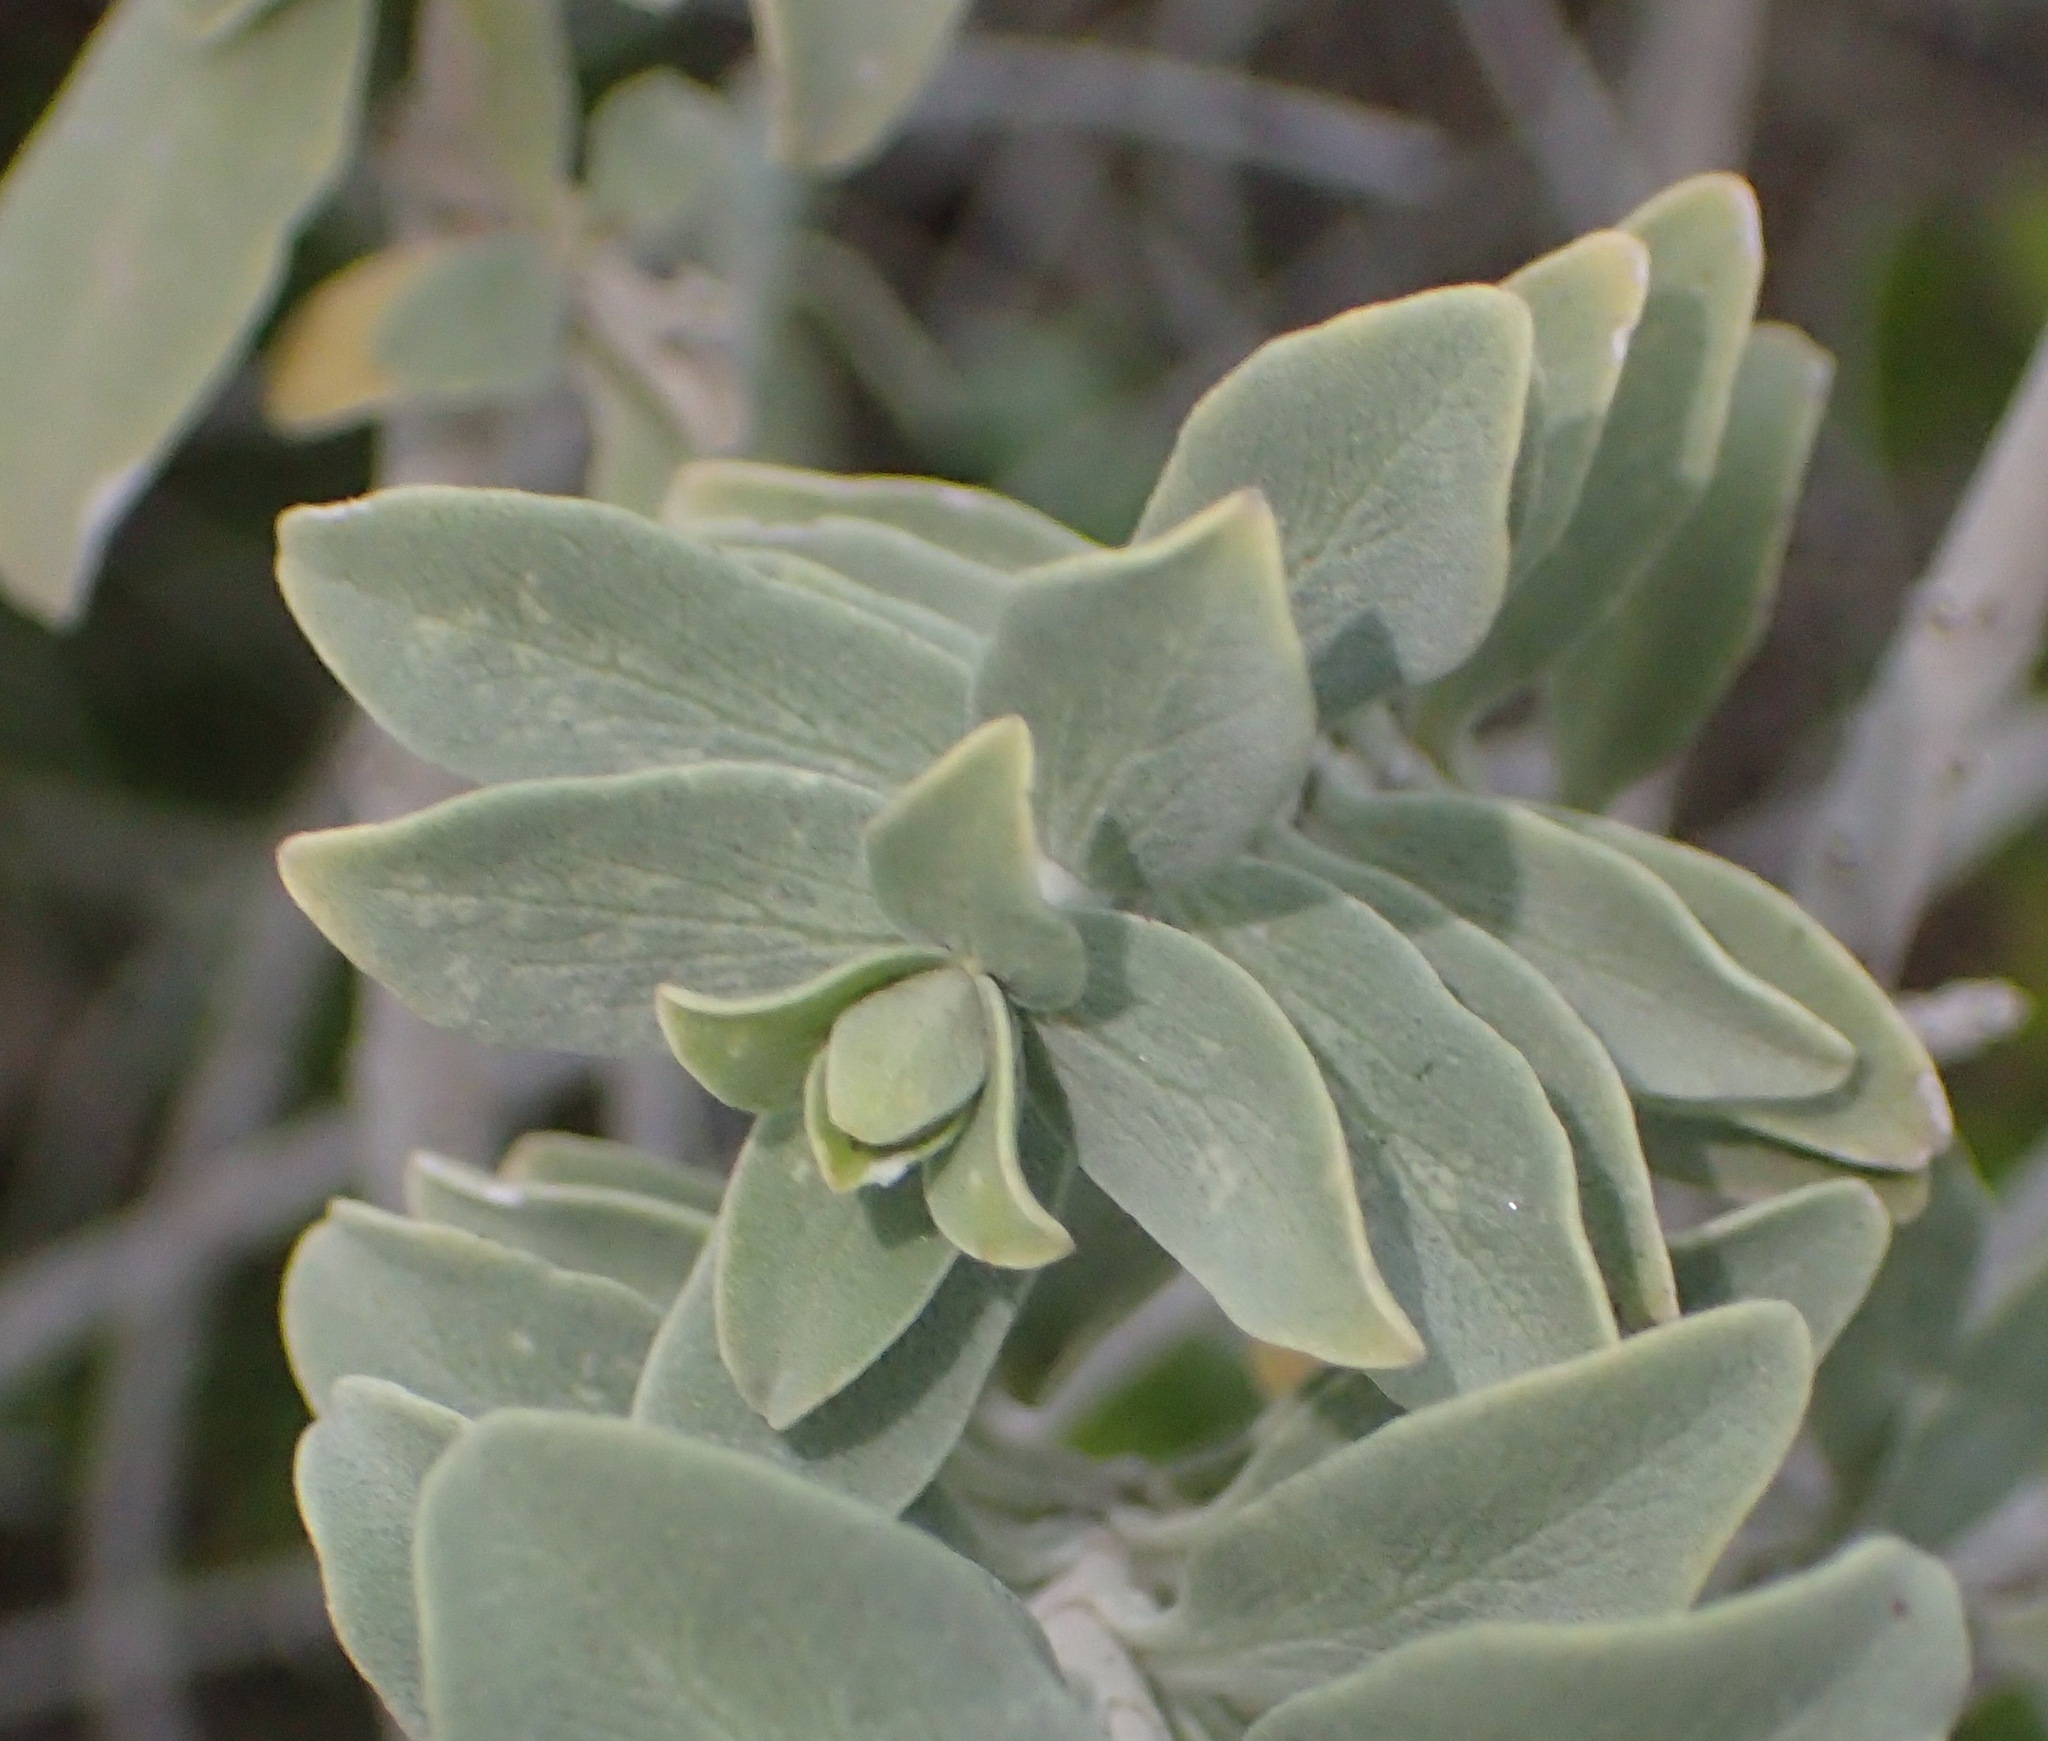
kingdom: Plantae
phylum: Tracheophyta
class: Magnoliopsida
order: Lamiales
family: Lamiaceae
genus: Salvia
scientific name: Salvia aurea
